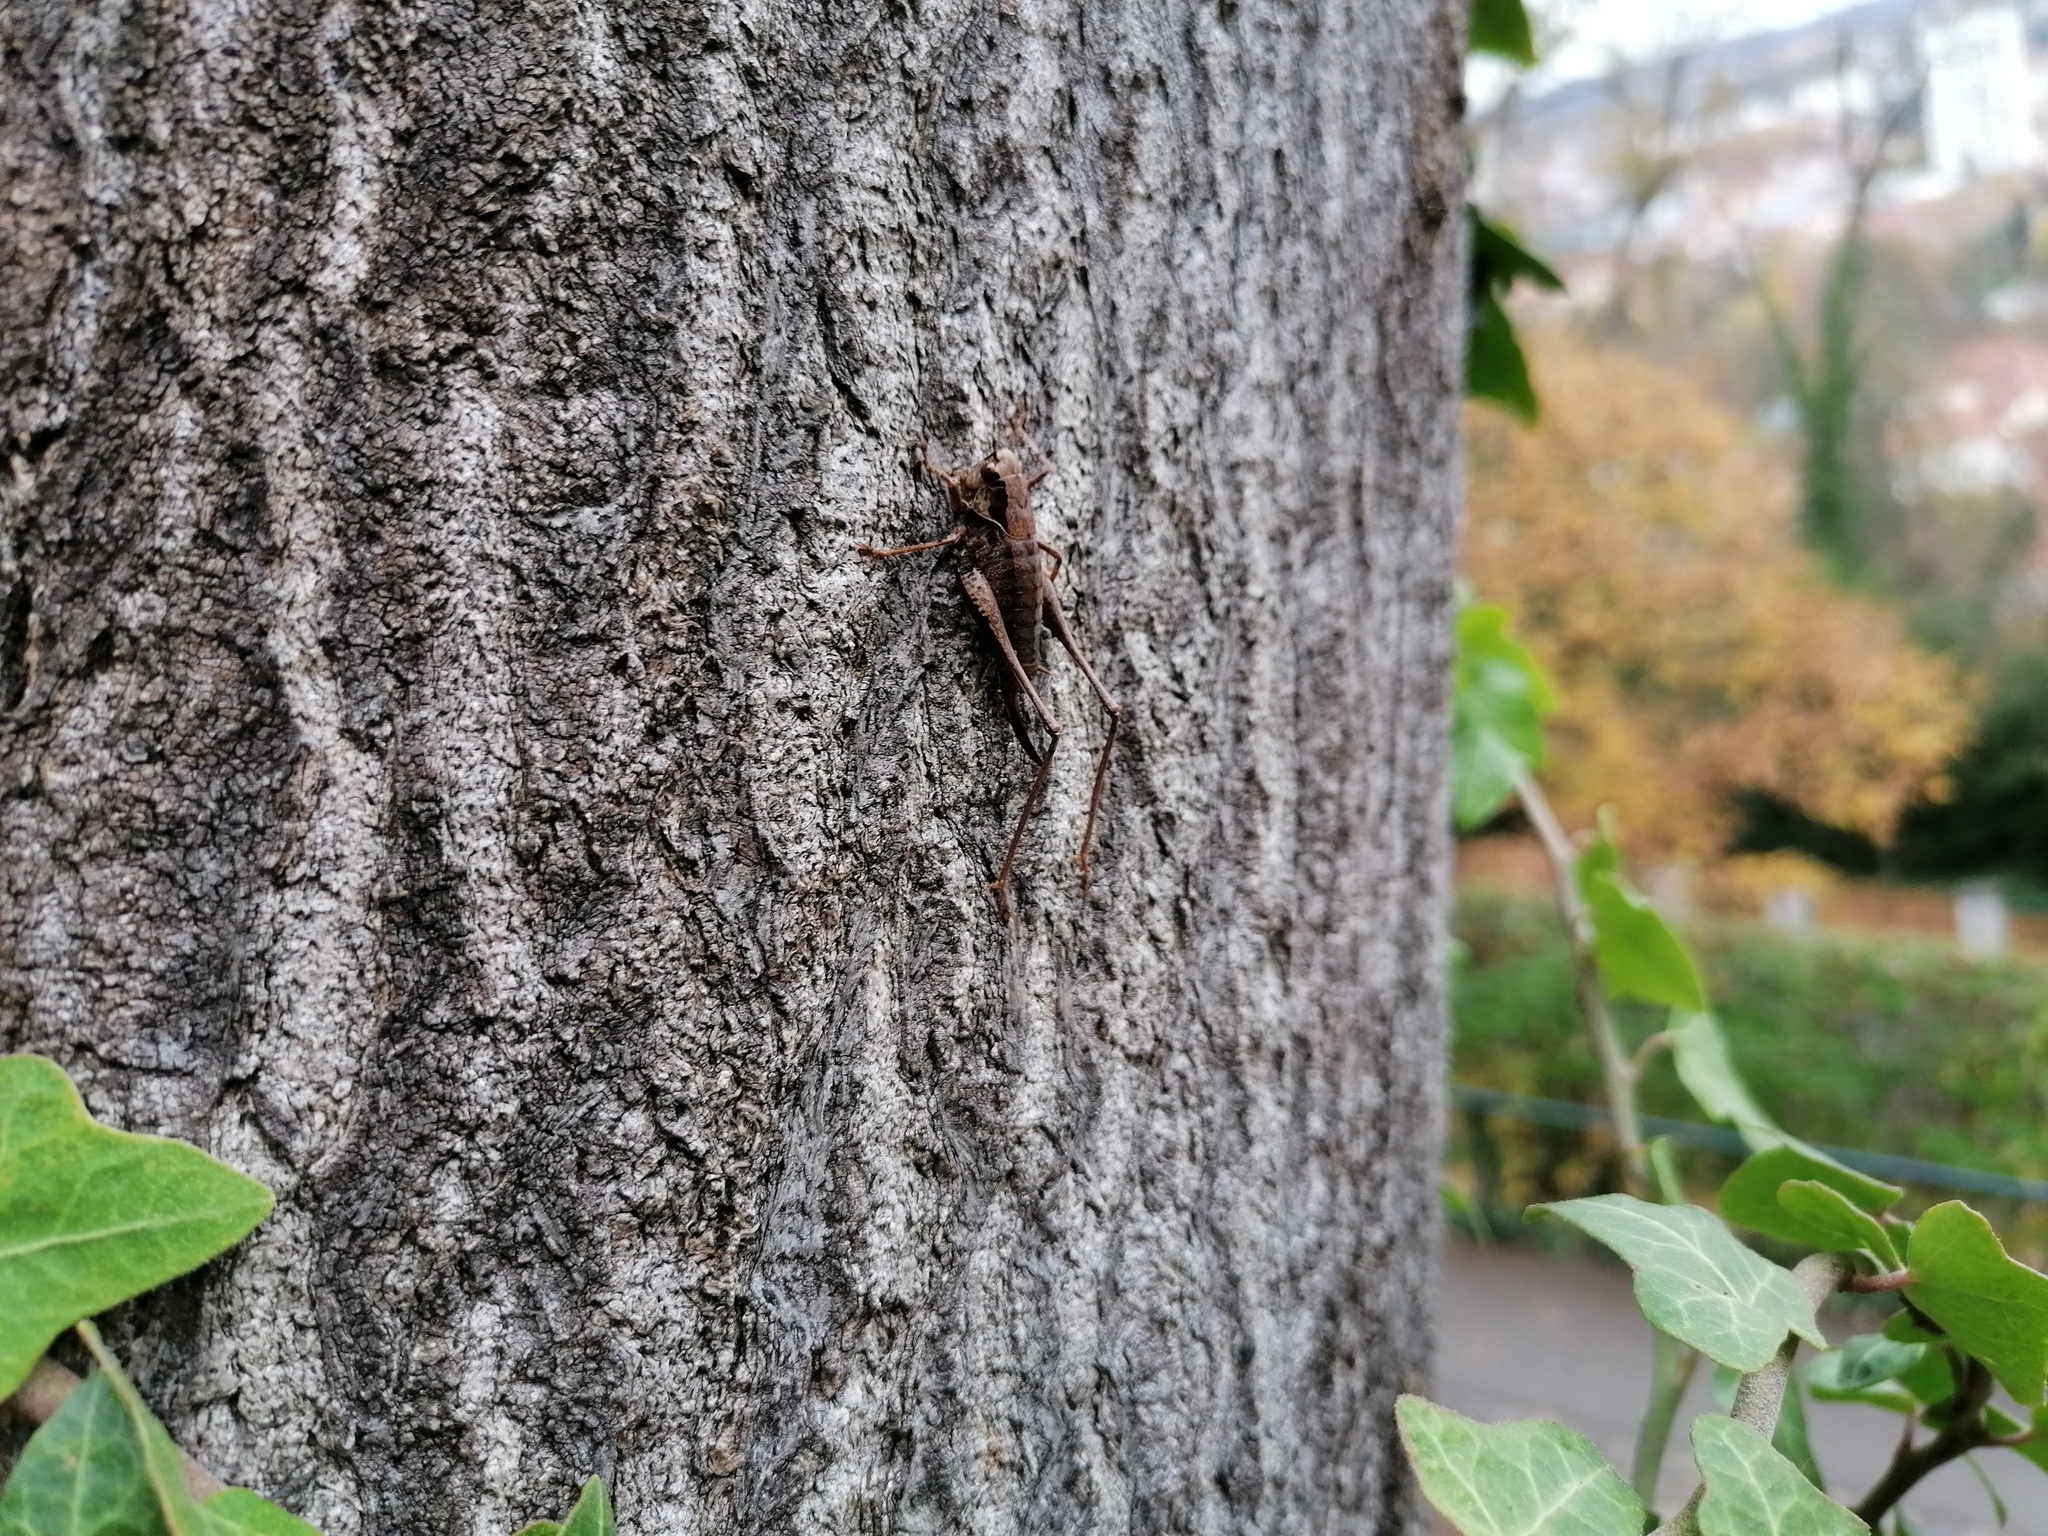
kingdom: Animalia
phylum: Arthropoda
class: Insecta
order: Orthoptera
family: Tettigoniidae
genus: Pholidoptera
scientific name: Pholidoptera griseoaptera
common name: Dark bush-cricket
